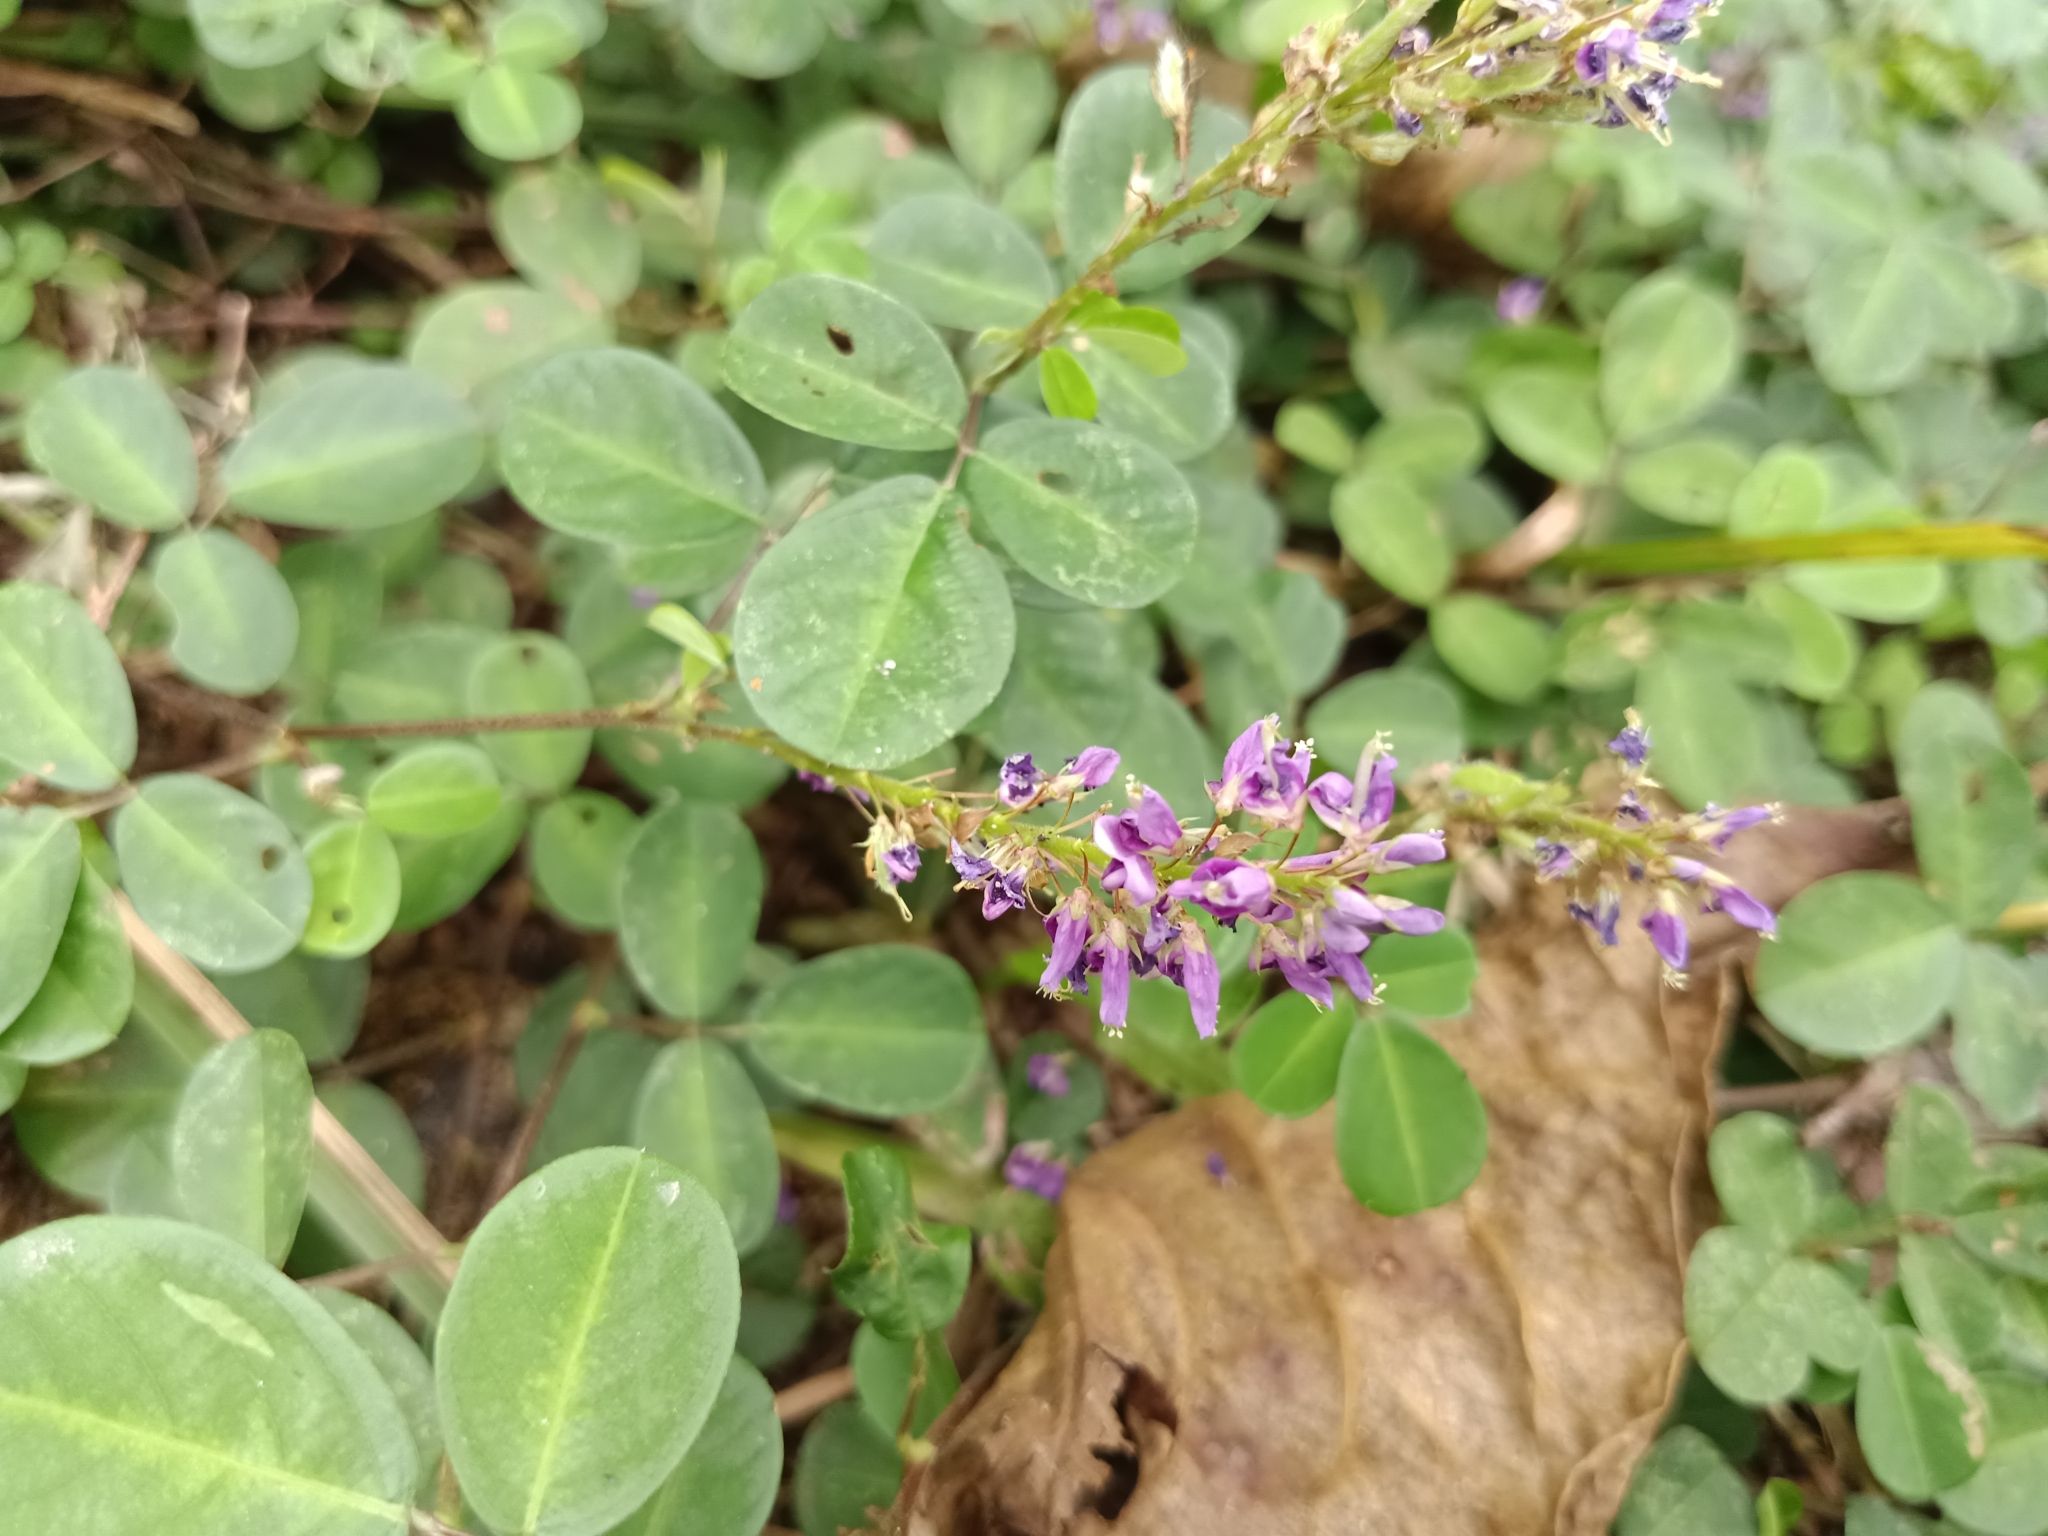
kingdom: Plantae
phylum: Tracheophyta
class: Magnoliopsida
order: Fabales
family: Fabaceae
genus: Grona
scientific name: Grona heterocarpos
